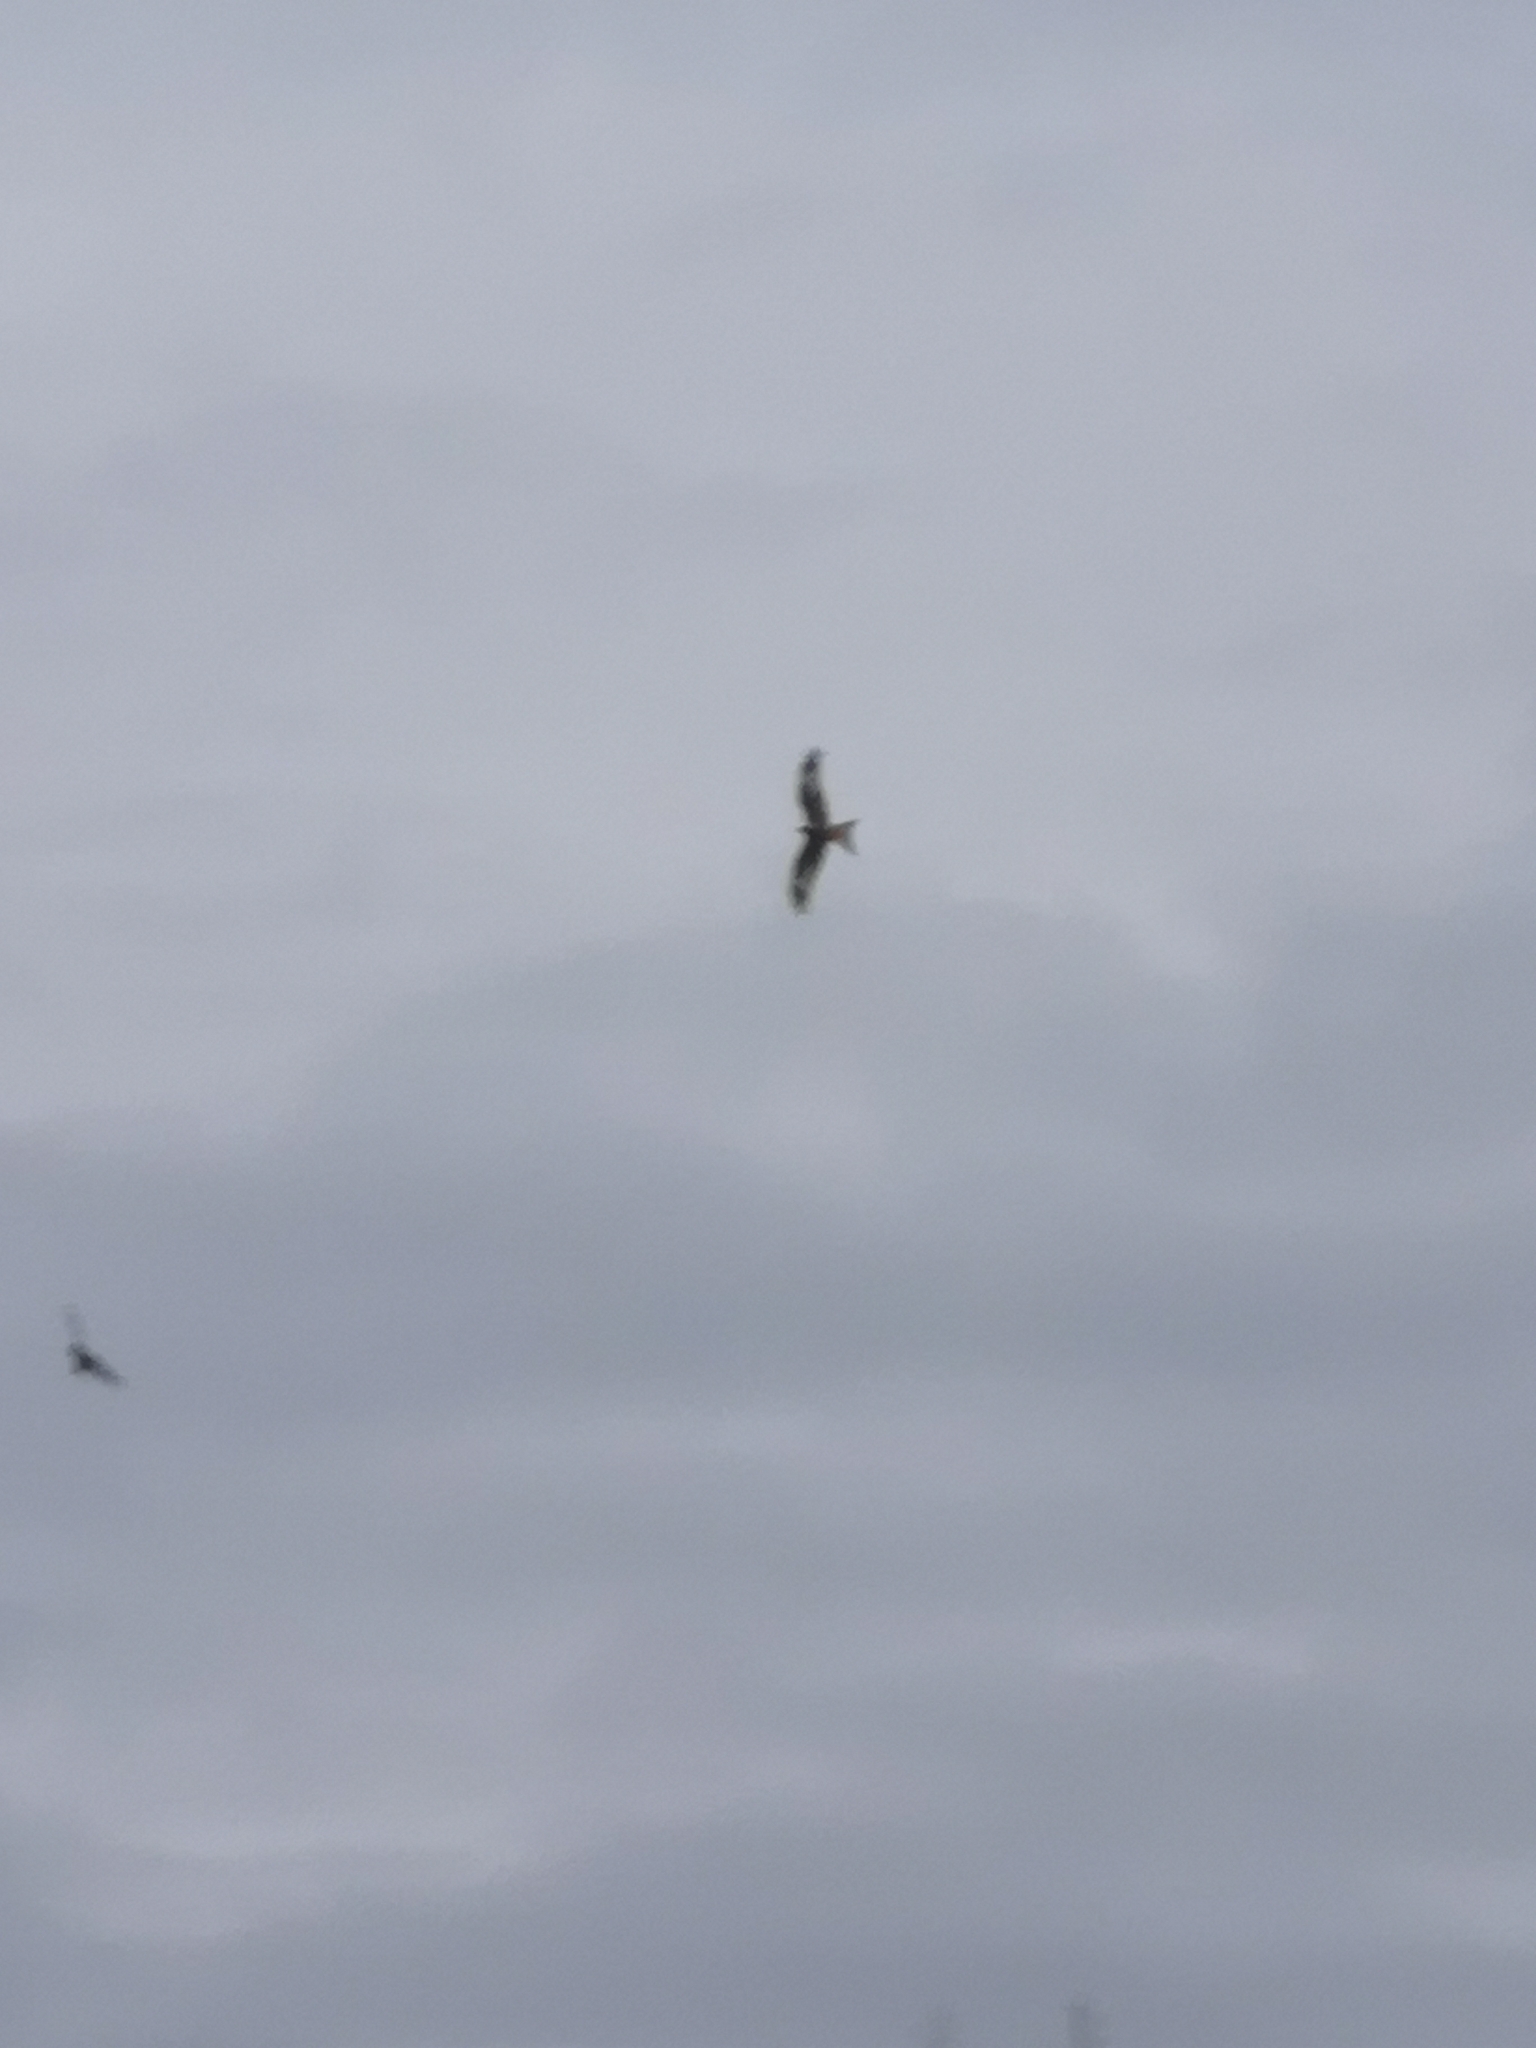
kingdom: Animalia
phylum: Chordata
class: Aves
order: Accipitriformes
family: Accipitridae
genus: Milvus
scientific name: Milvus milvus
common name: Red kite
